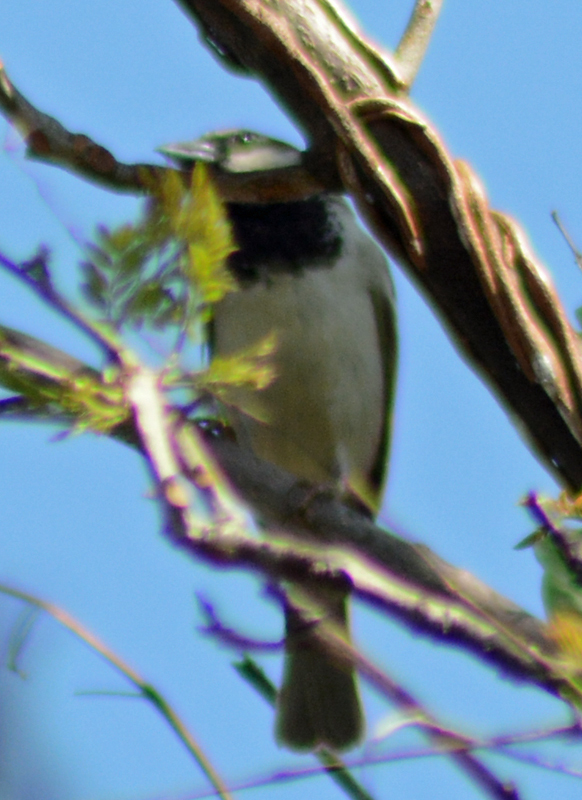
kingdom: Animalia
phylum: Chordata
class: Aves
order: Passeriformes
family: Passeridae
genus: Passer
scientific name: Passer domesticus
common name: House sparrow
